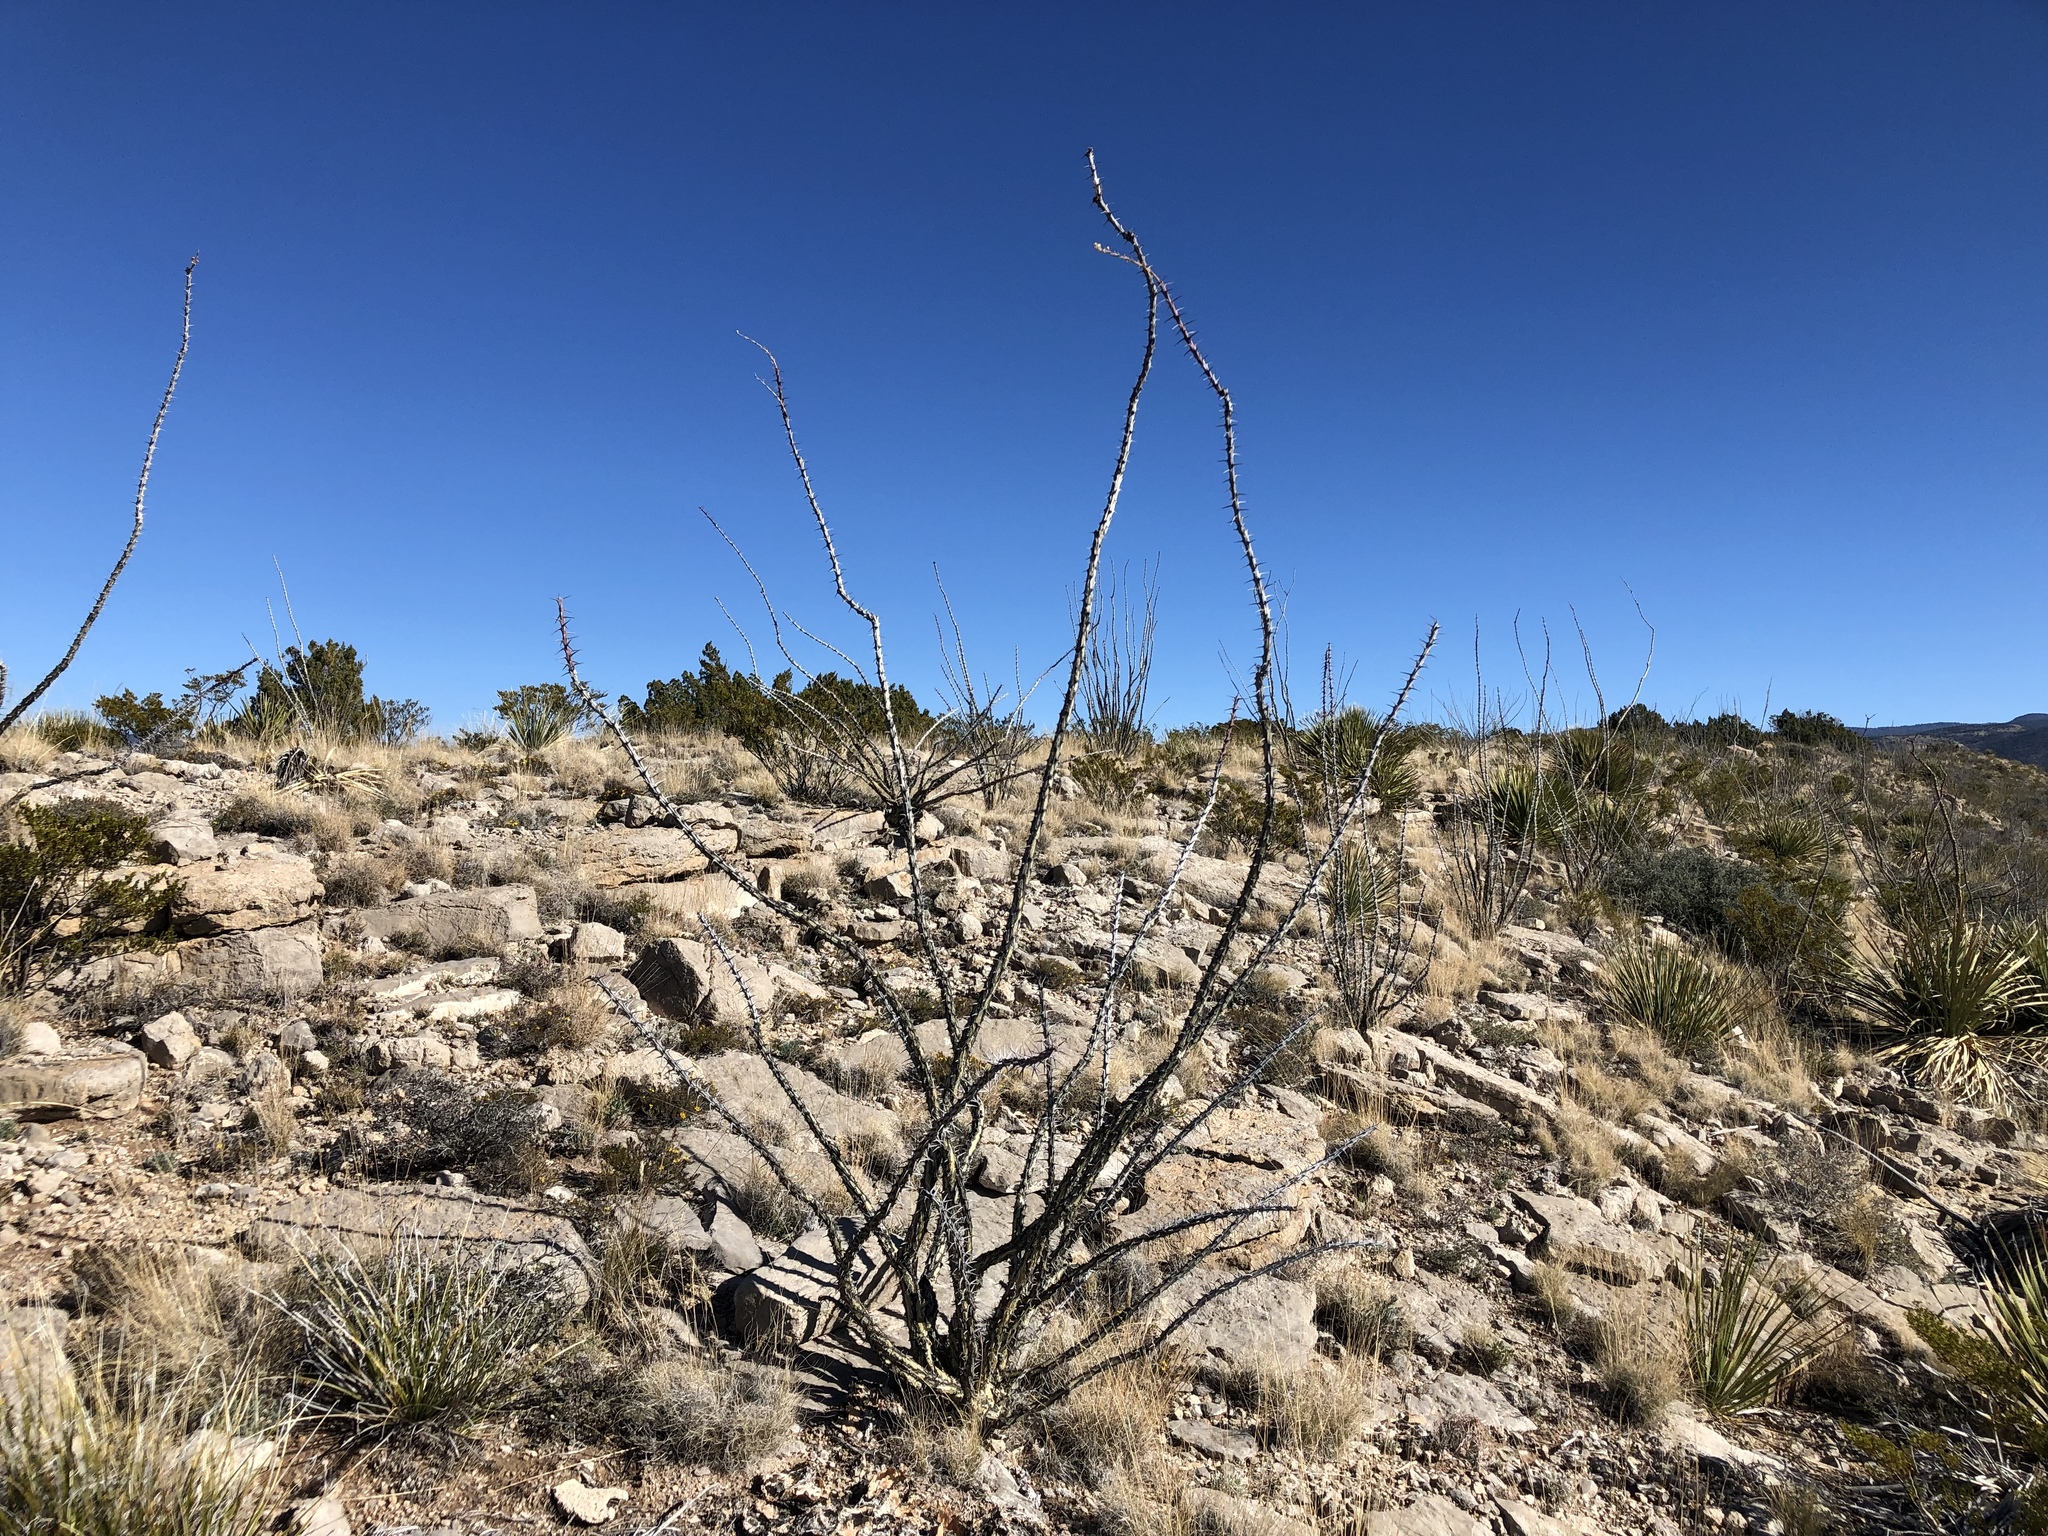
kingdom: Plantae
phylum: Tracheophyta
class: Magnoliopsida
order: Ericales
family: Fouquieriaceae
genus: Fouquieria
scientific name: Fouquieria splendens
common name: Vine-cactus
